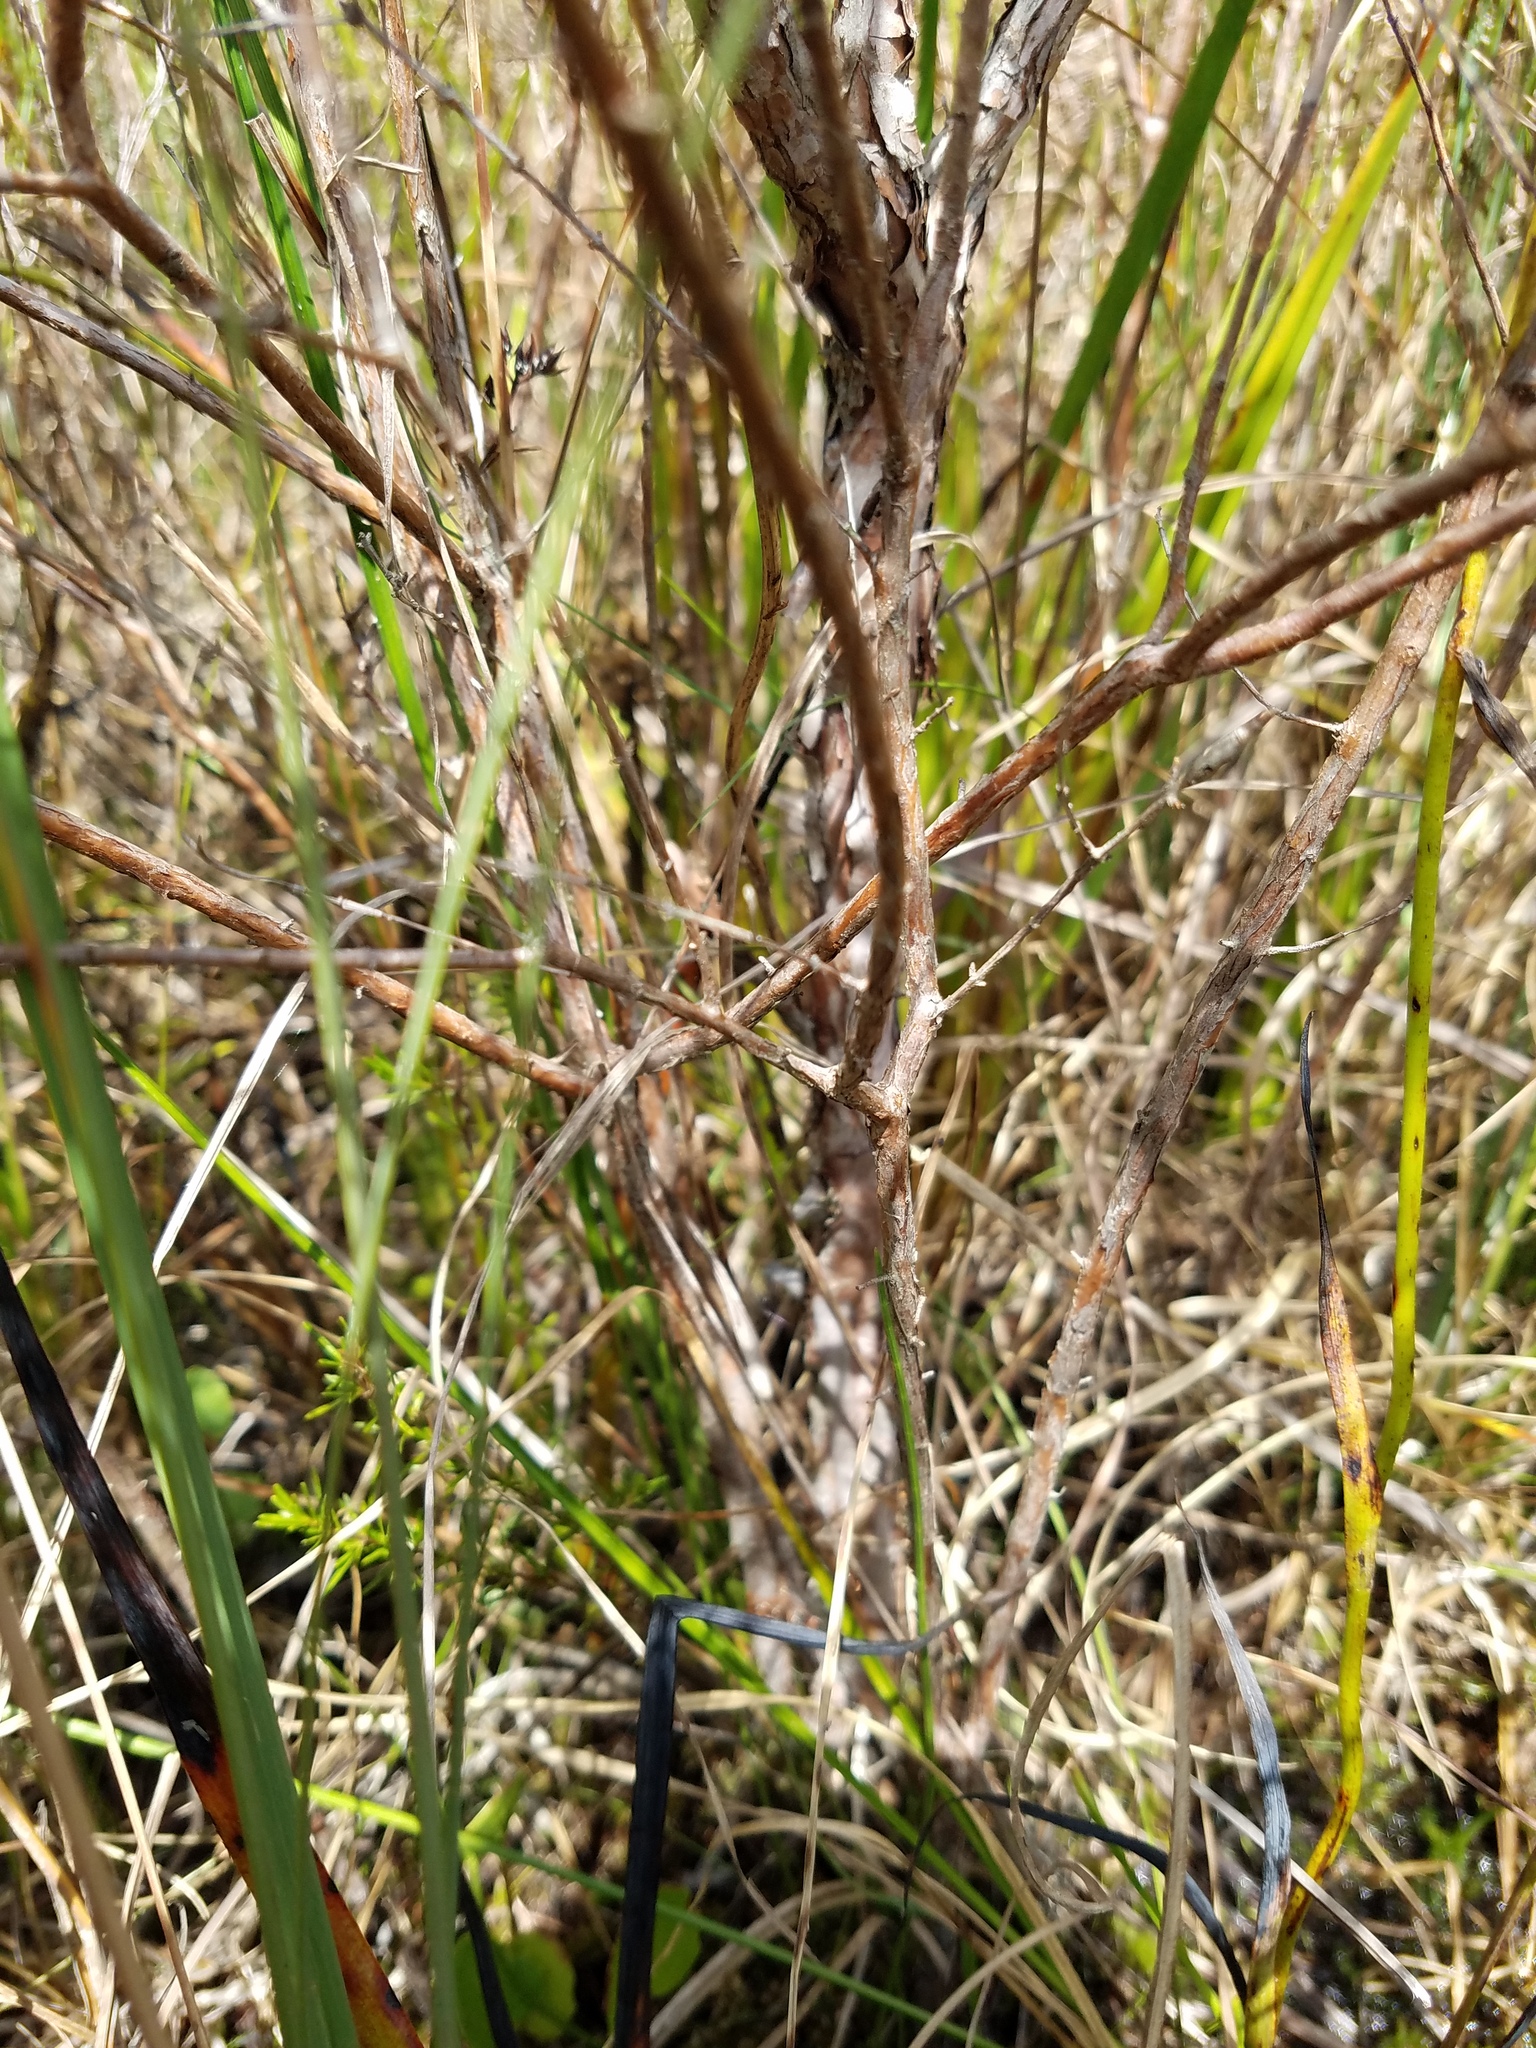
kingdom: Plantae
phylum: Tracheophyta
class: Magnoliopsida
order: Malpighiales
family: Hypericaceae
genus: Hypericum
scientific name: Hypericum fasciculatum
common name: Peelbark st. john's wort
